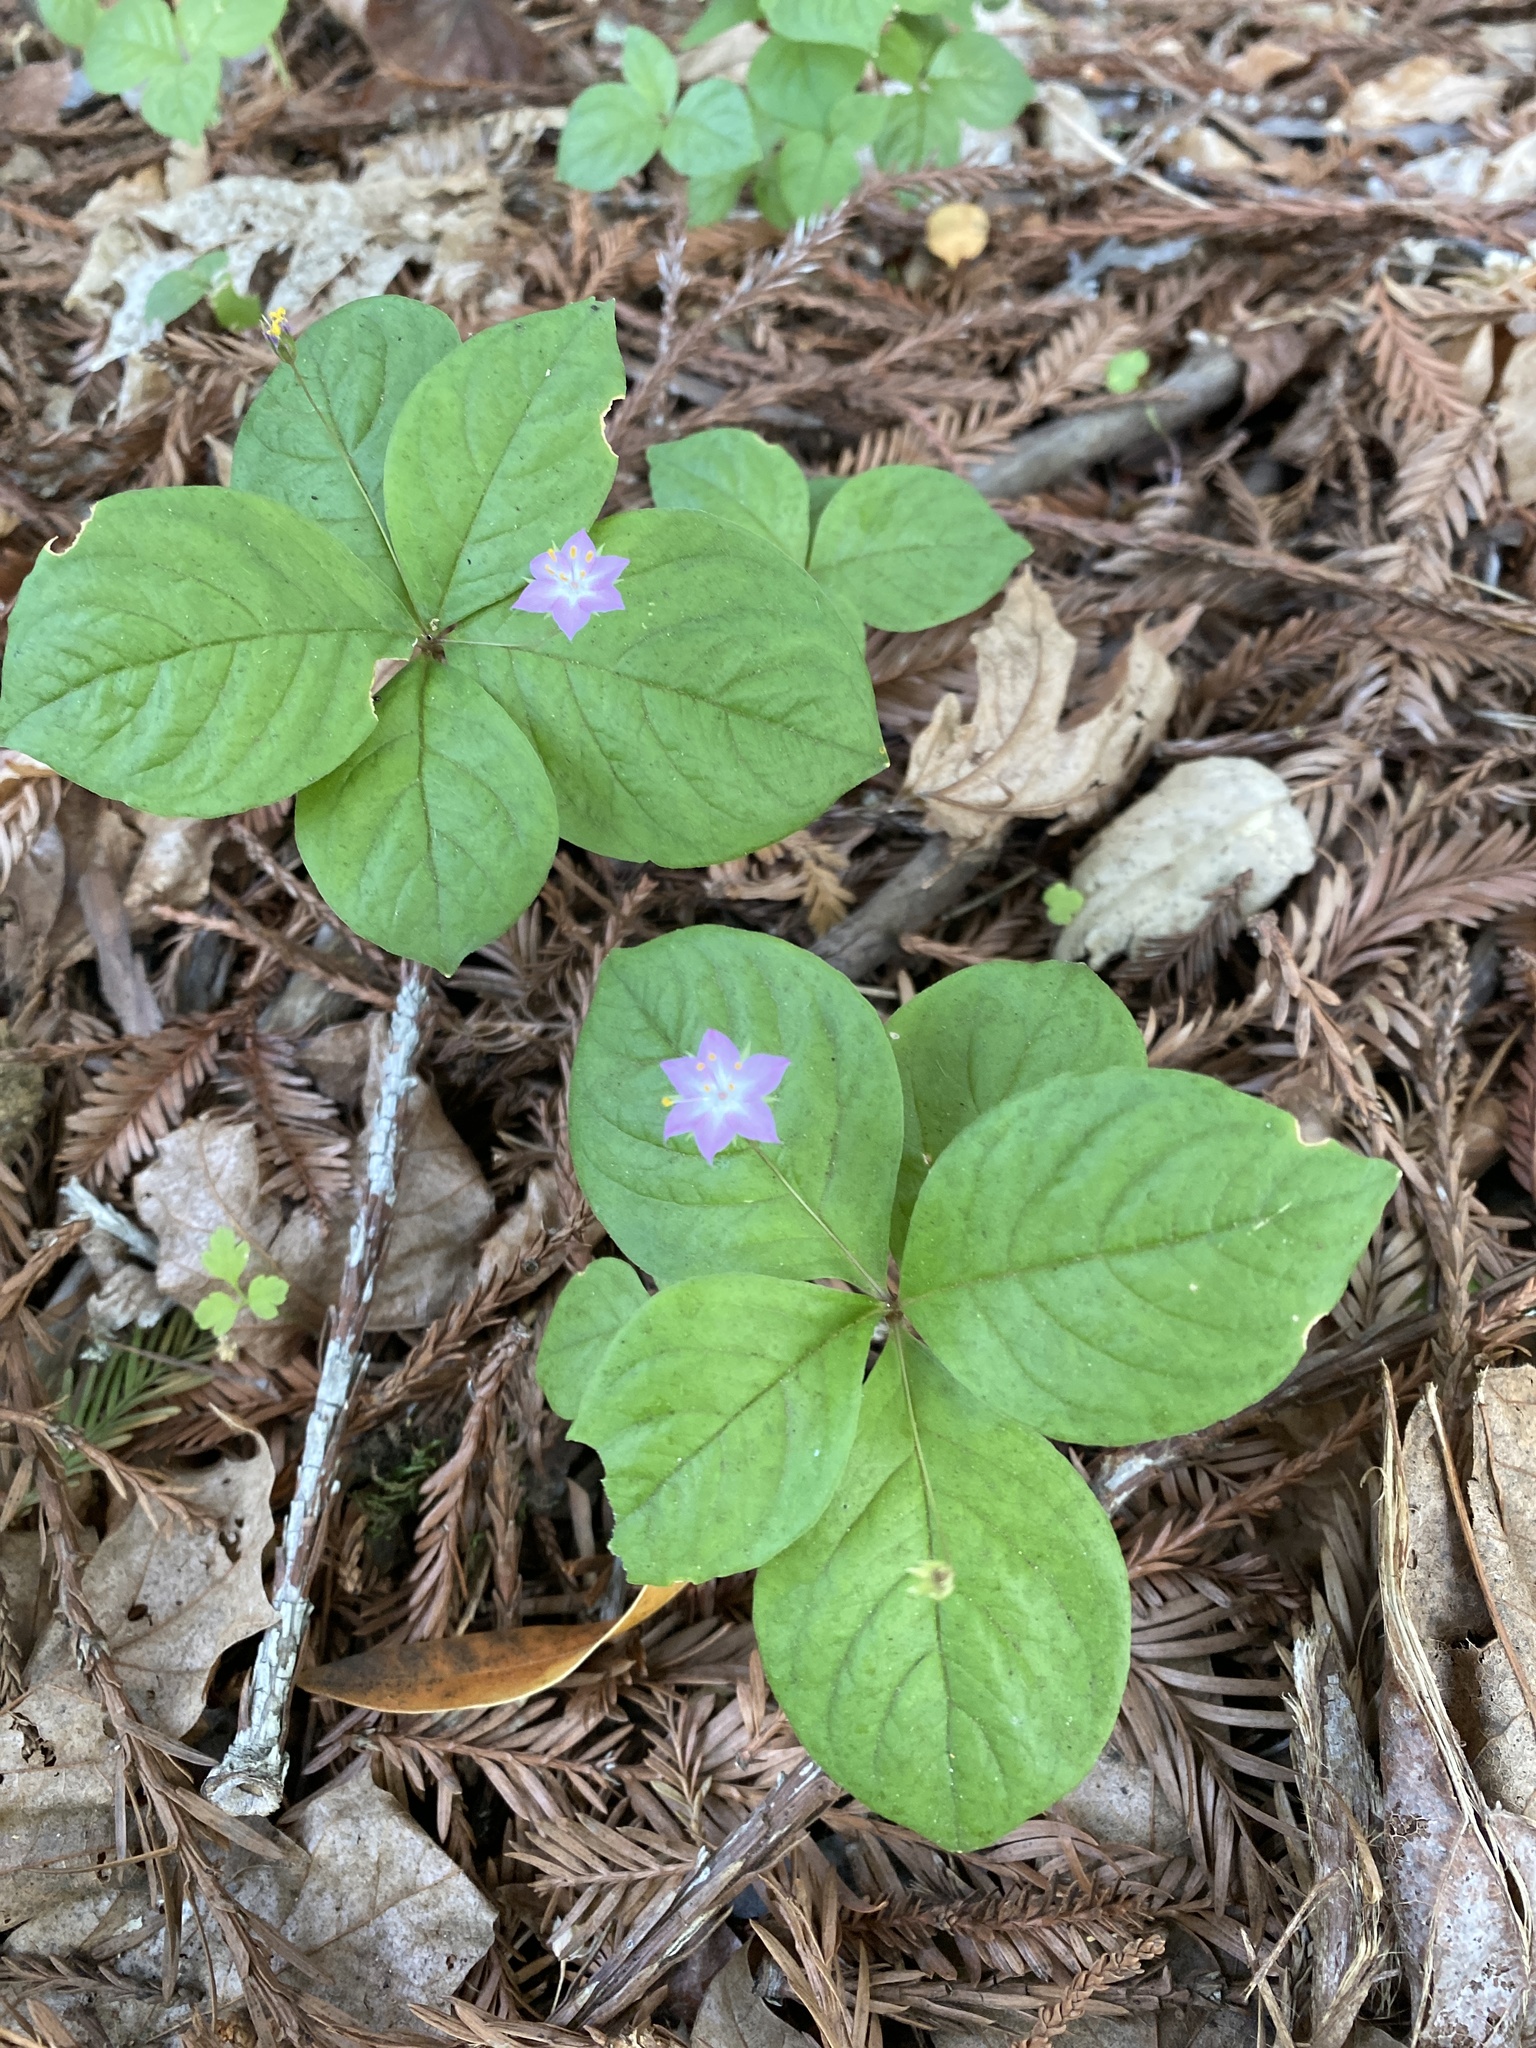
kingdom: Plantae
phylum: Tracheophyta
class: Magnoliopsida
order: Ericales
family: Primulaceae
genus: Lysimachia
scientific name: Lysimachia latifolia
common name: Pacific starflower
